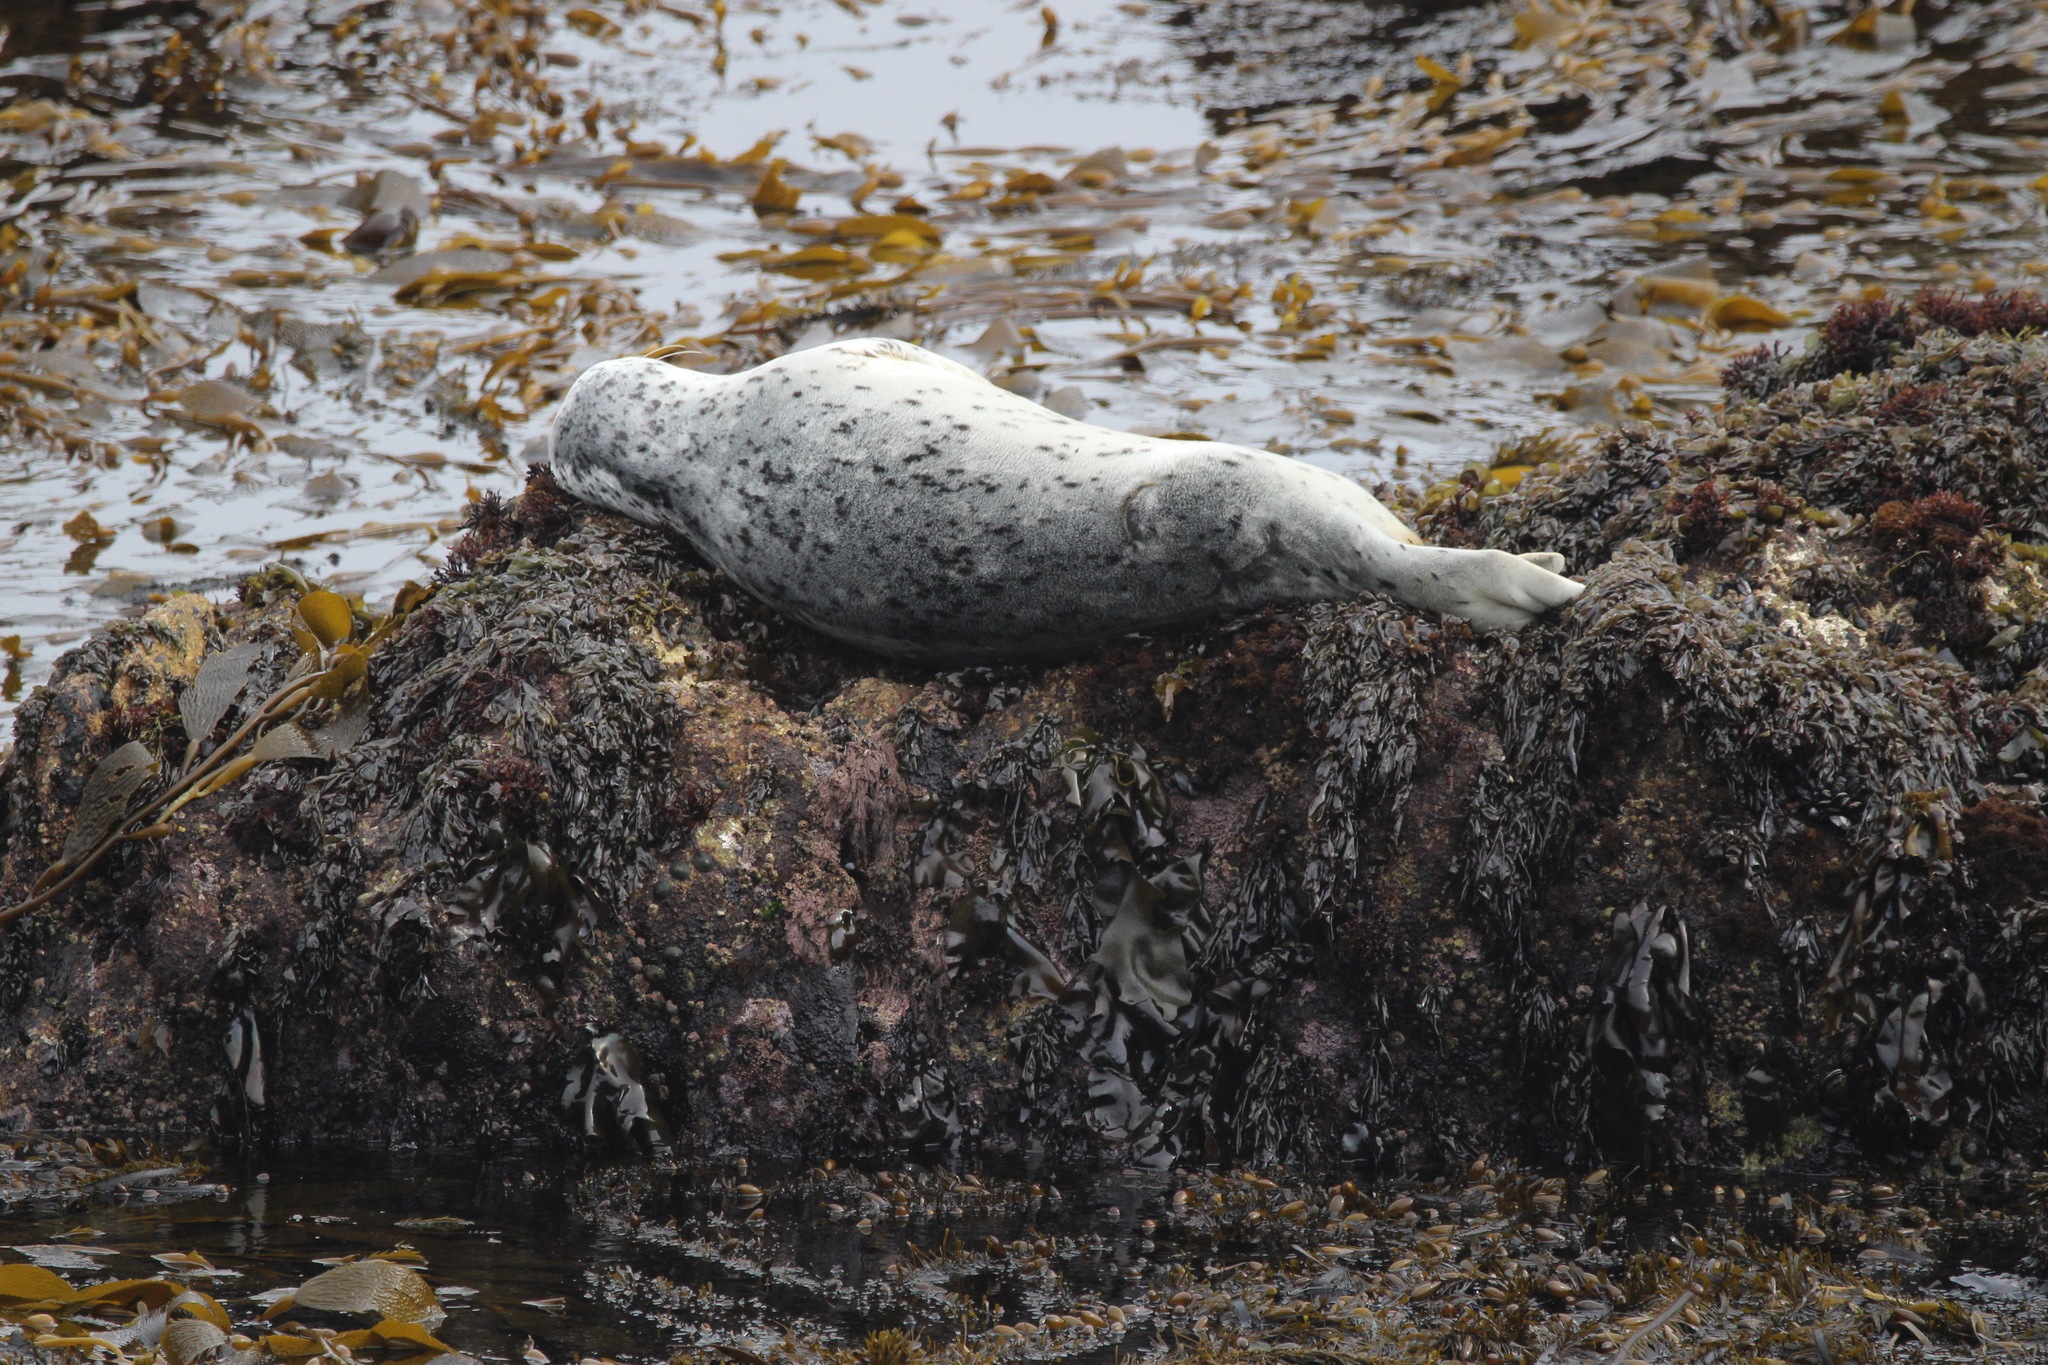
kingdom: Animalia
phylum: Chordata
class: Mammalia
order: Carnivora
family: Phocidae
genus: Phoca
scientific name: Phoca vitulina
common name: Harbor seal
